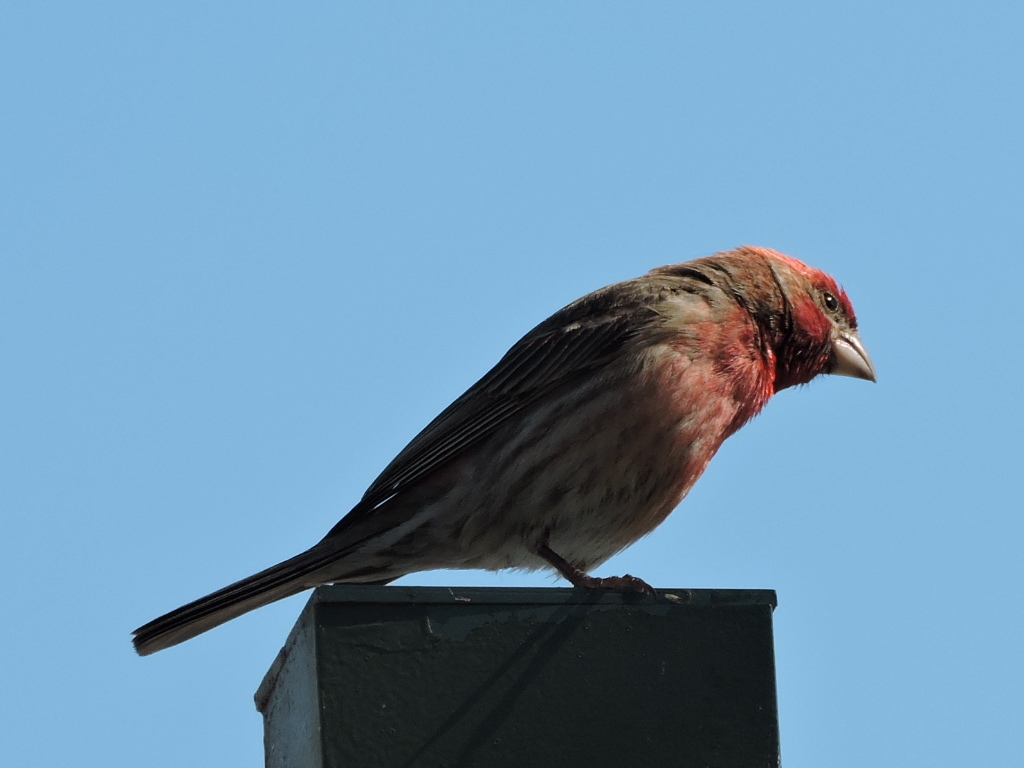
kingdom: Animalia
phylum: Chordata
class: Aves
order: Passeriformes
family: Fringillidae
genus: Haemorhous
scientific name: Haemorhous mexicanus
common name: House finch
